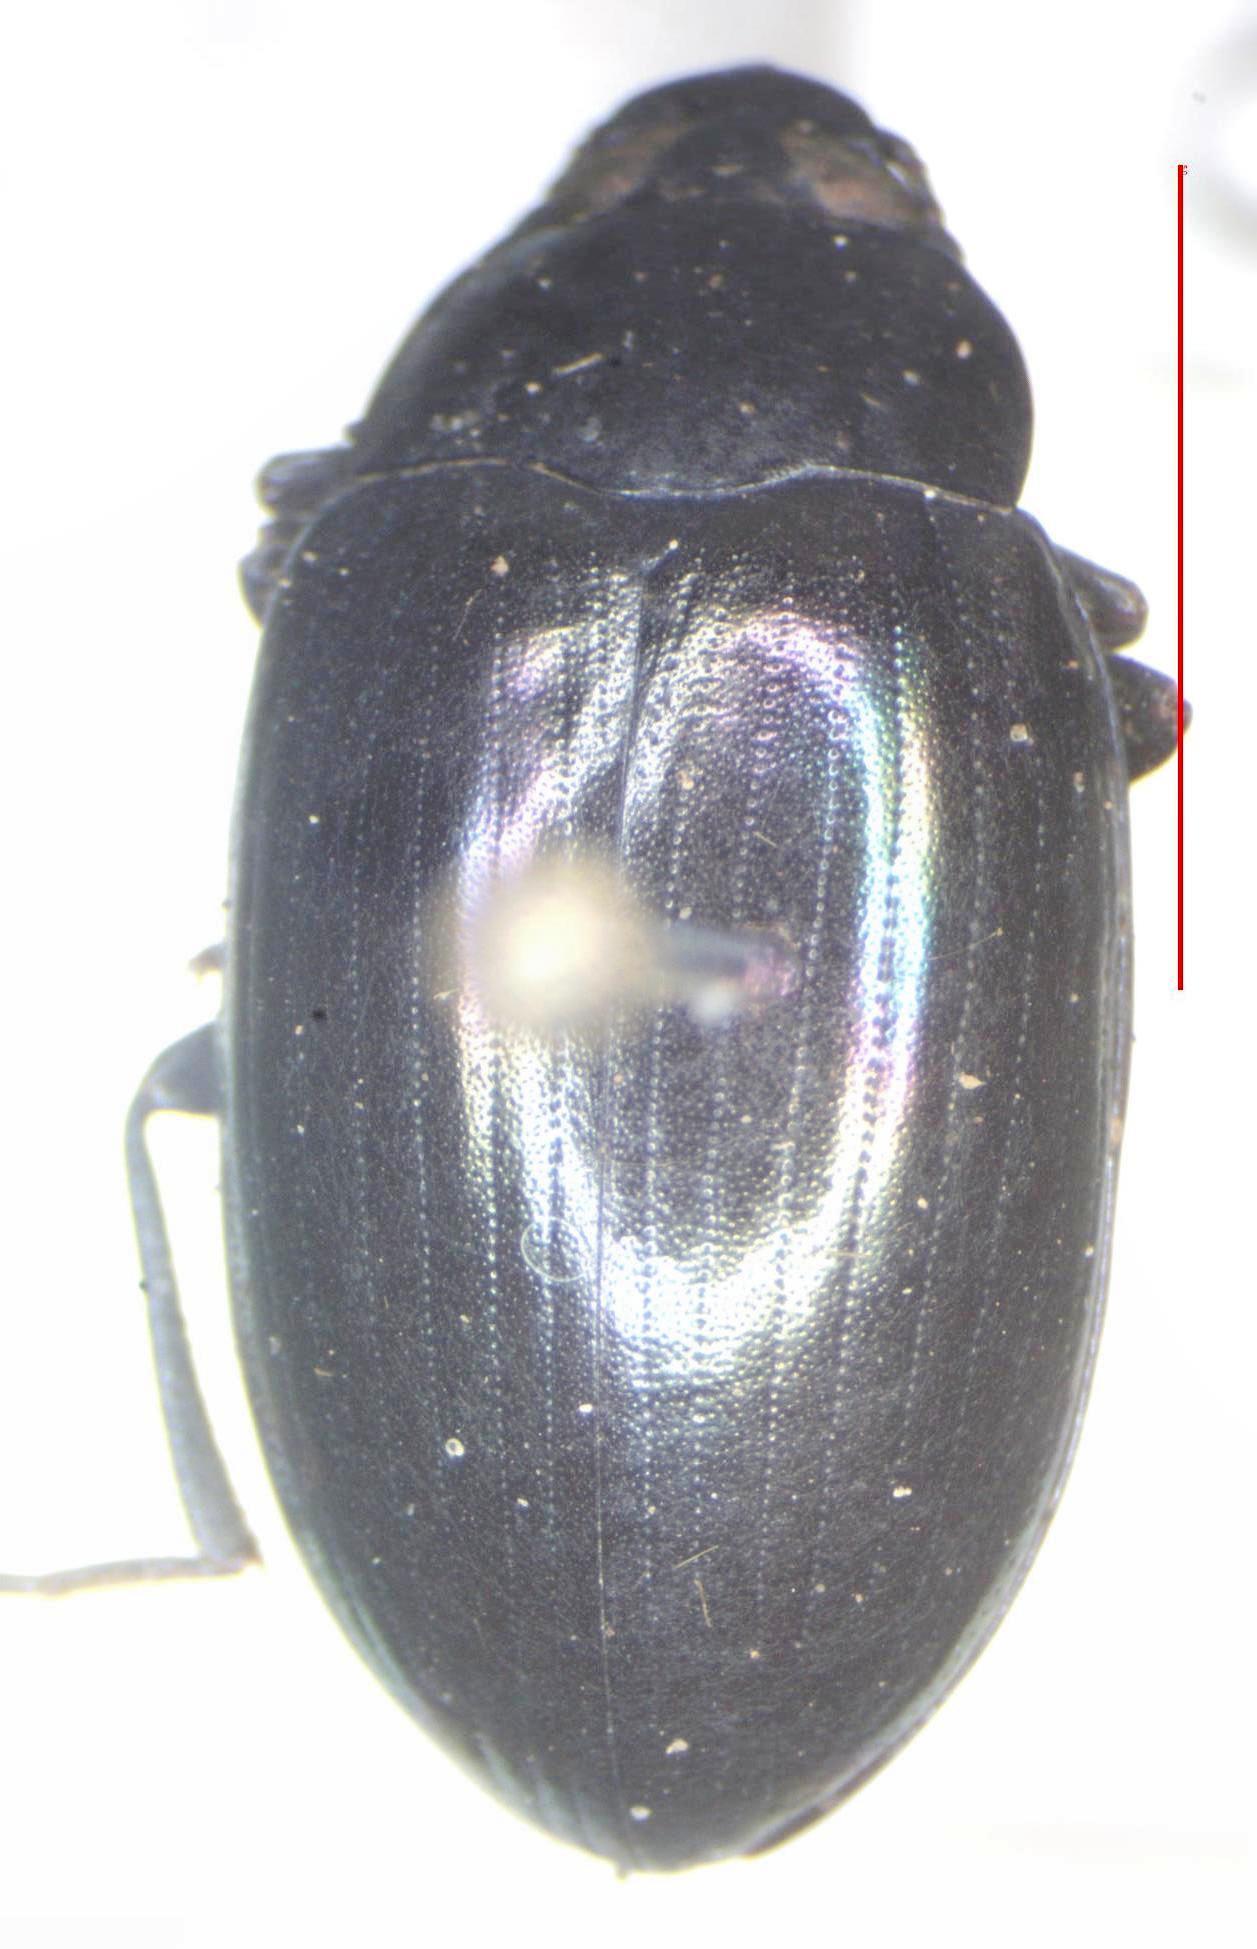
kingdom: Animalia
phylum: Arthropoda
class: Insecta
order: Coleoptera
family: Tenebrionidae
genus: Ceropria
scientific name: Ceropria induta
